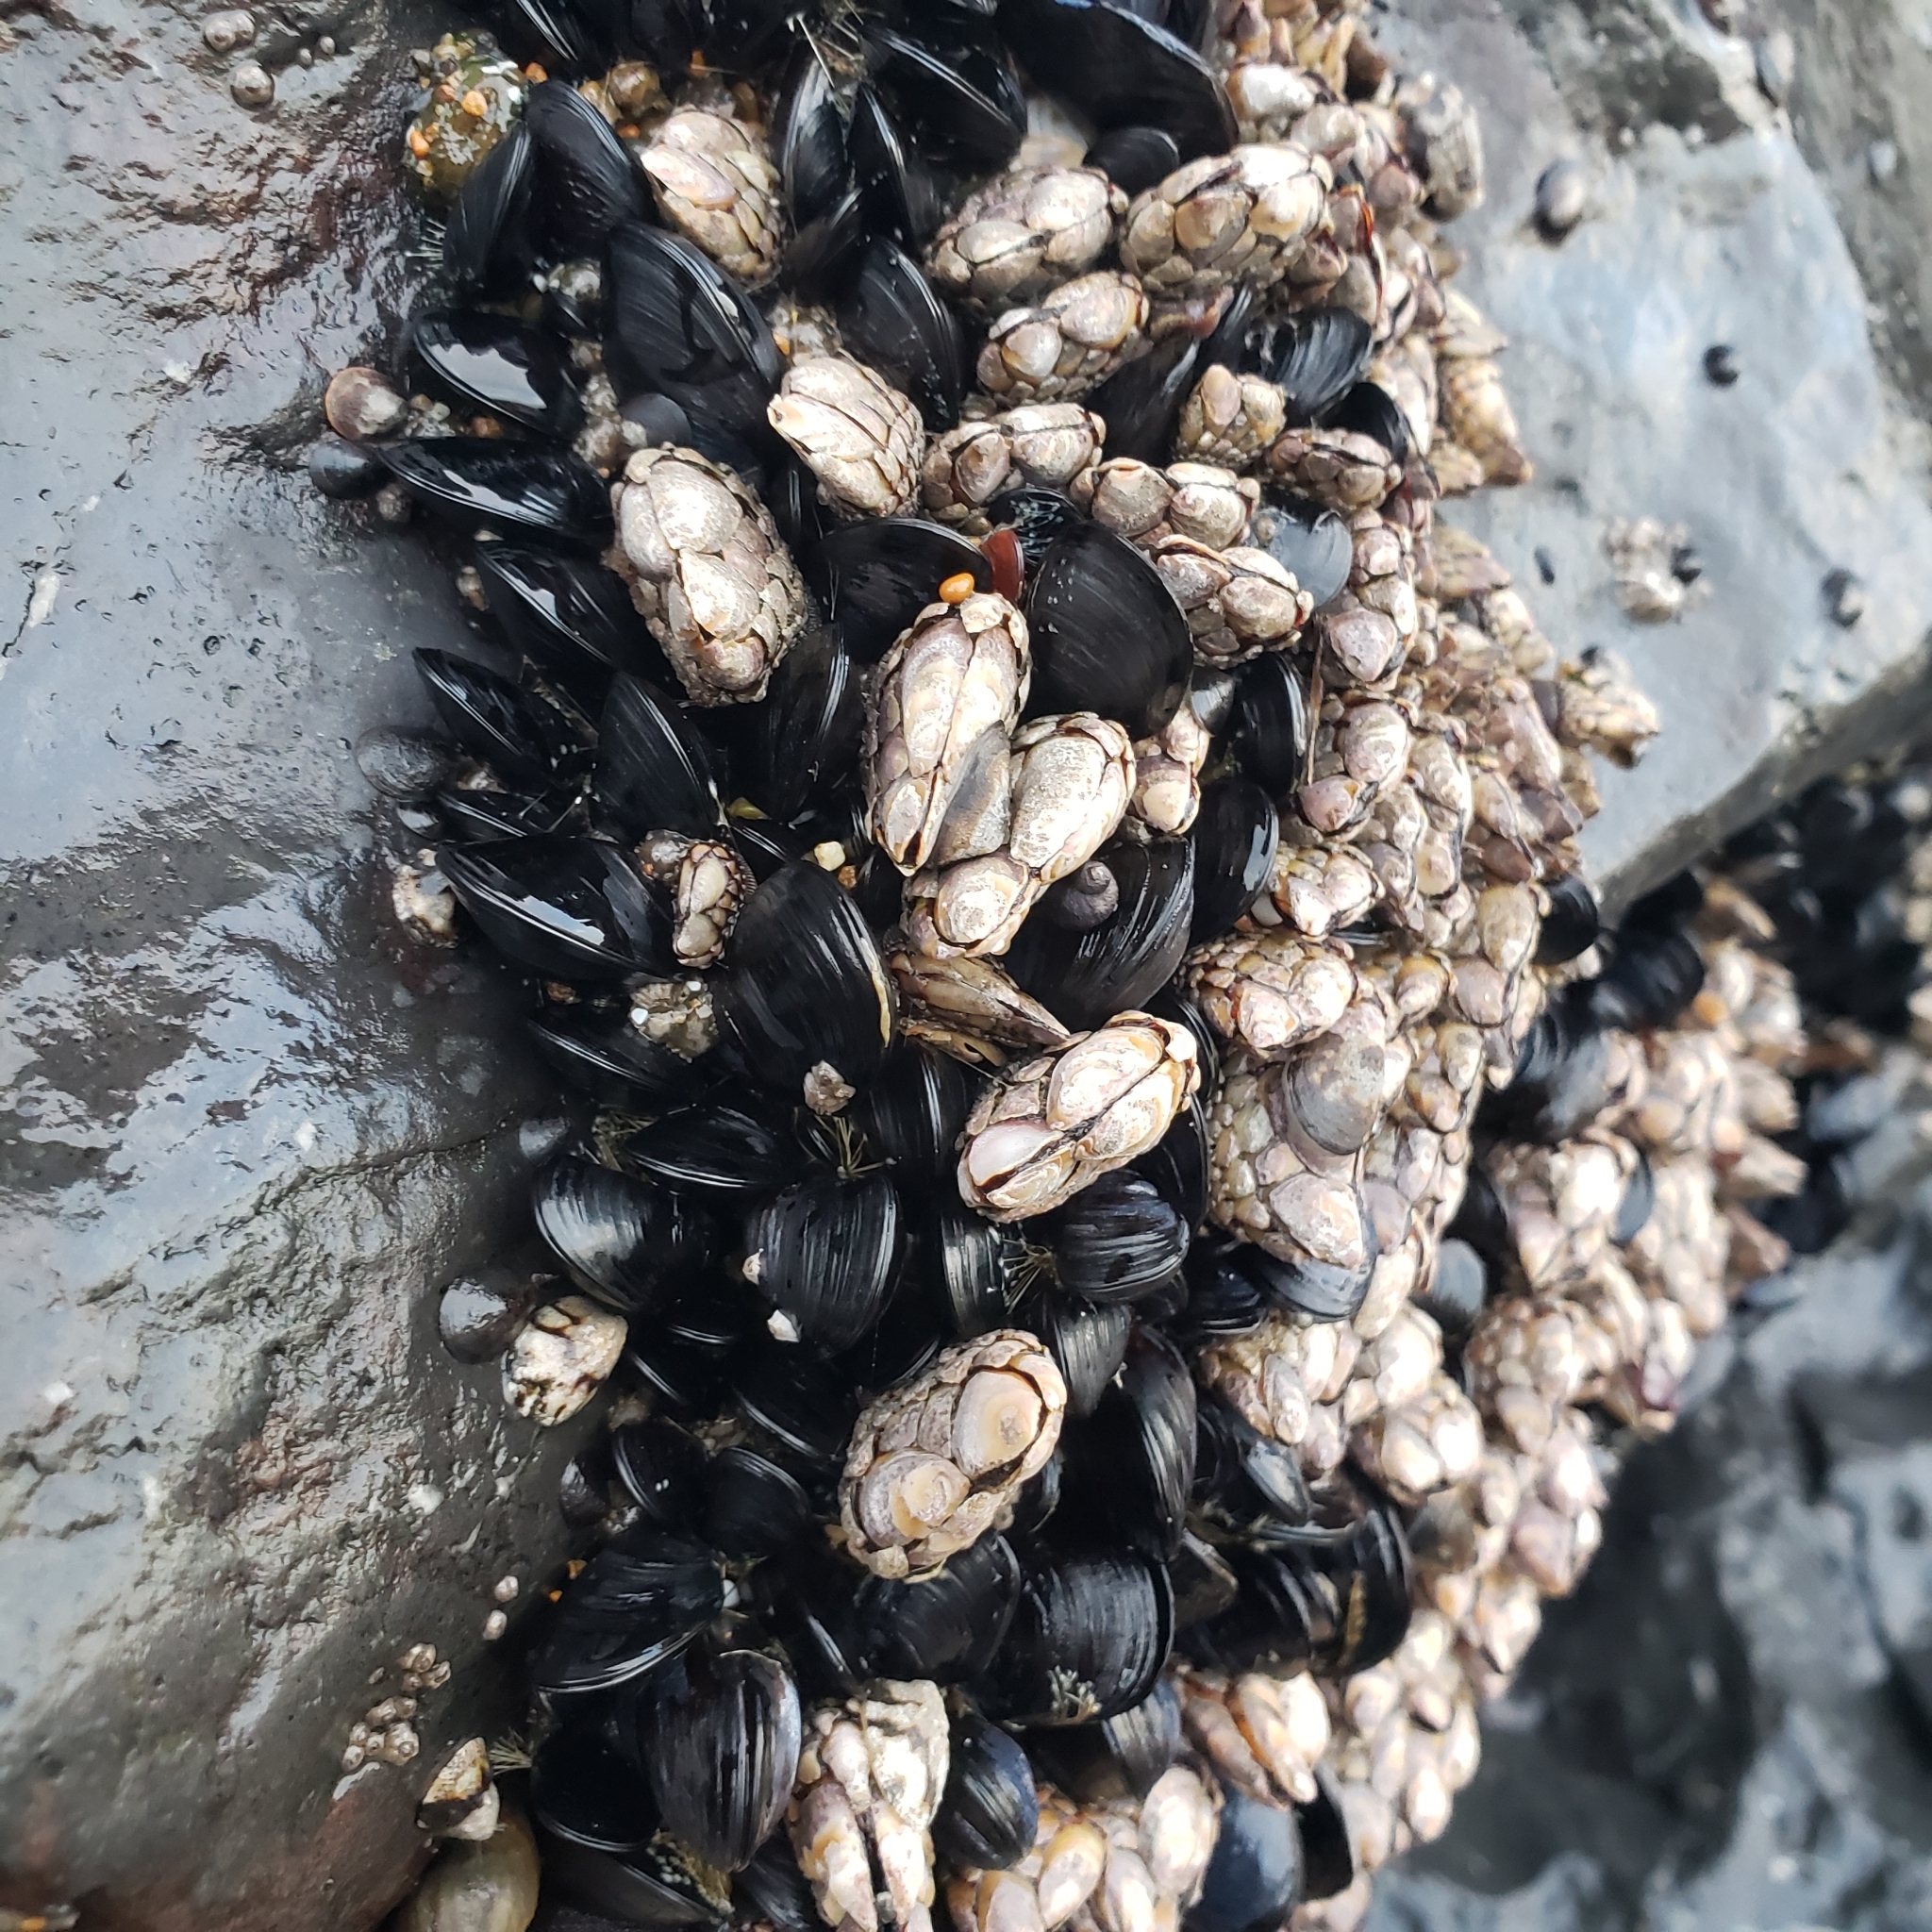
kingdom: Animalia
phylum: Arthropoda
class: Maxillopoda
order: Pedunculata
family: Pollicipedidae
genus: Pollicipes
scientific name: Pollicipes polymerus
